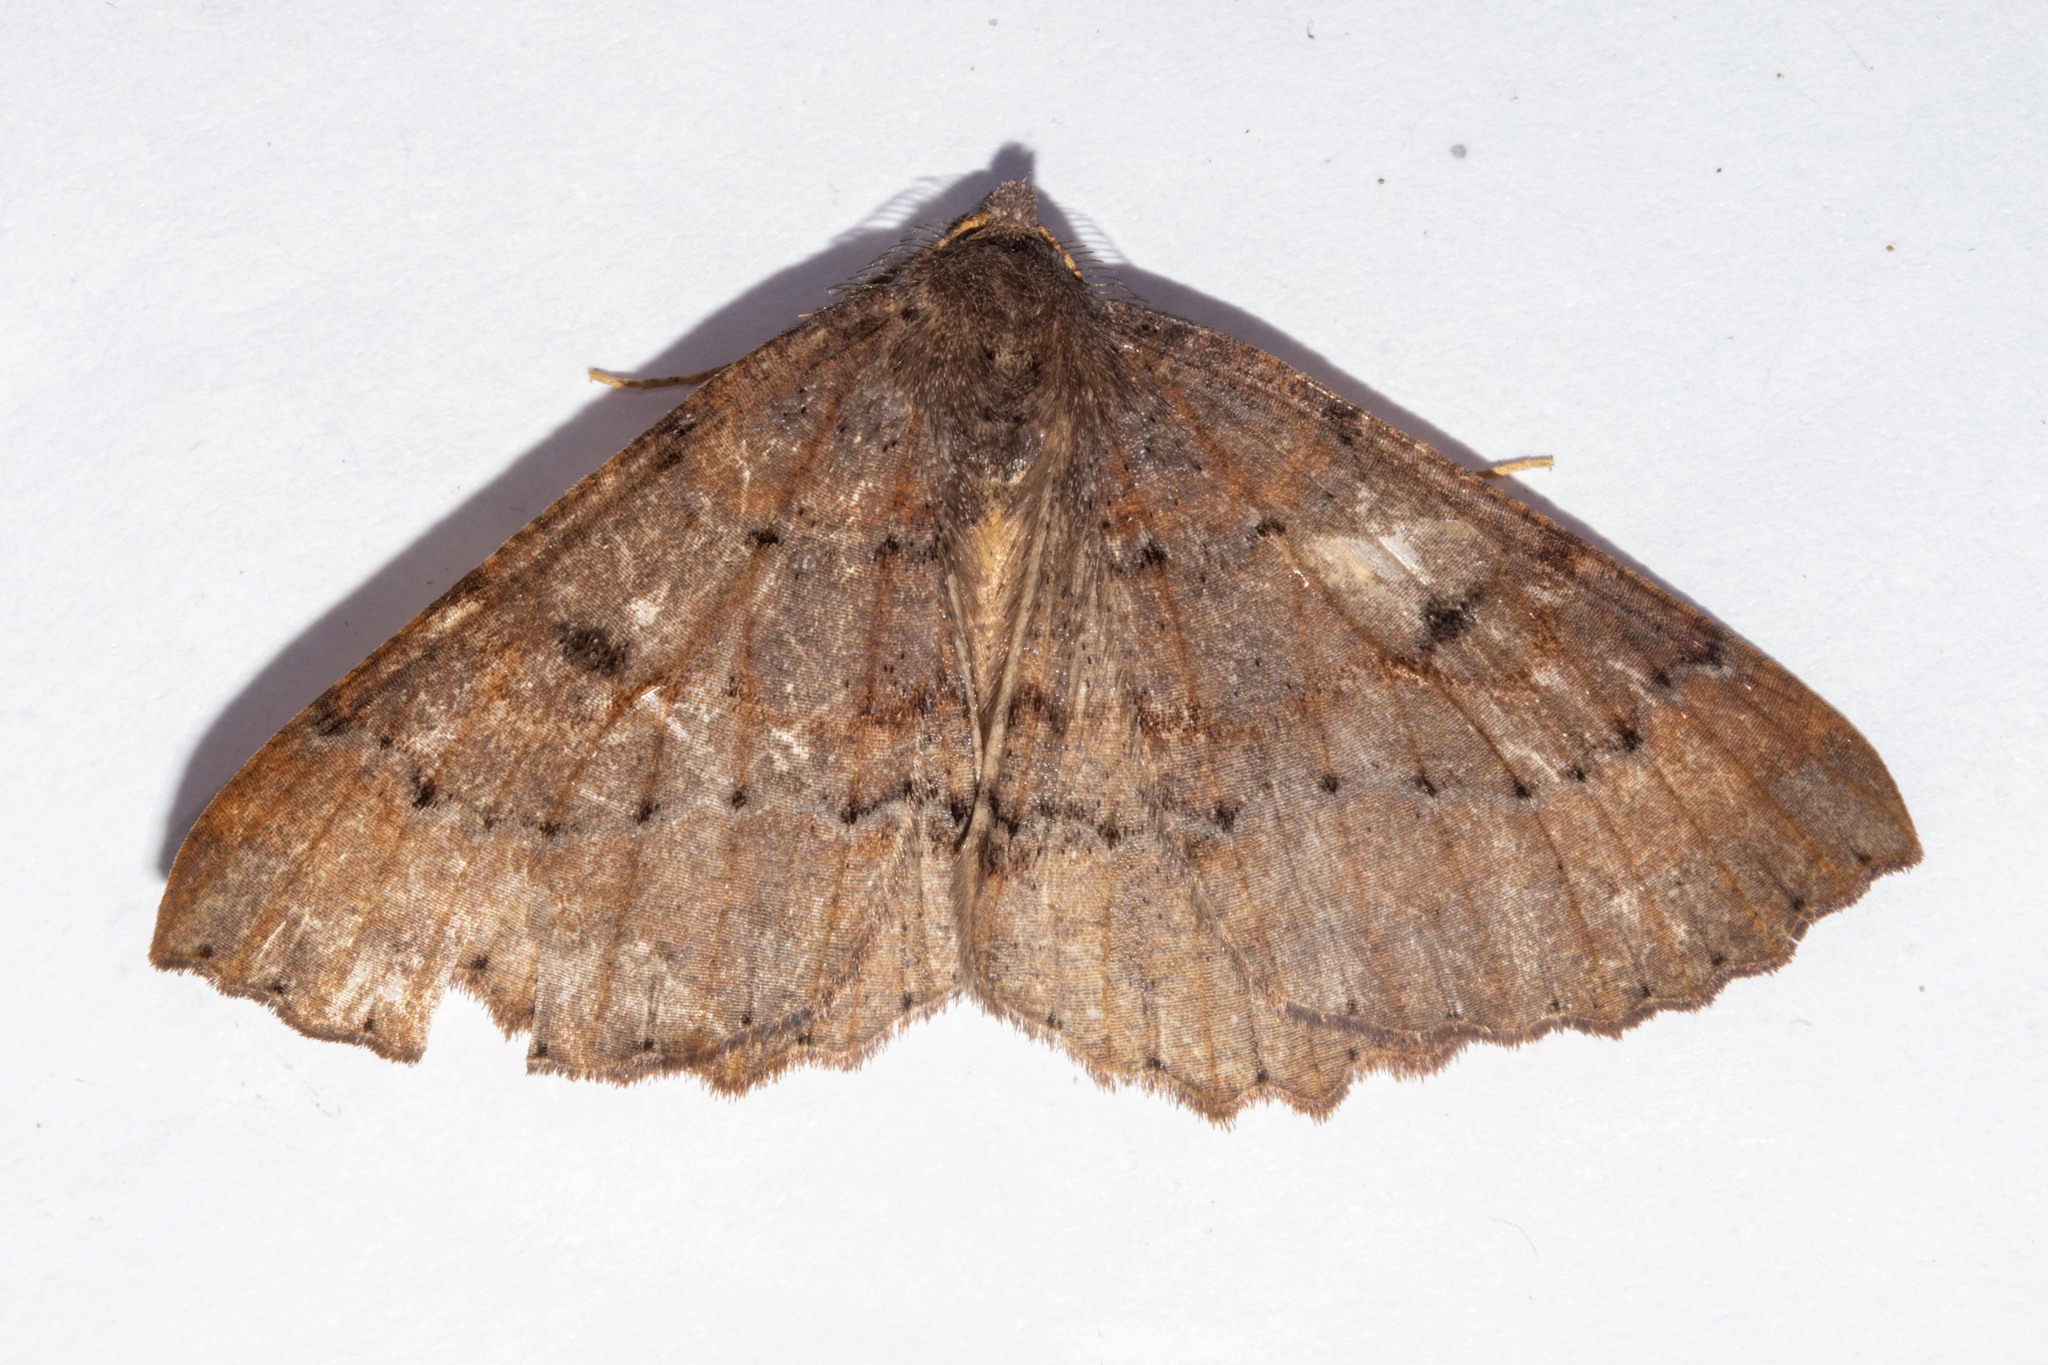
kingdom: Animalia
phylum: Arthropoda
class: Insecta
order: Lepidoptera
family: Geometridae
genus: Cleora
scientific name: Cleora scriptaria
